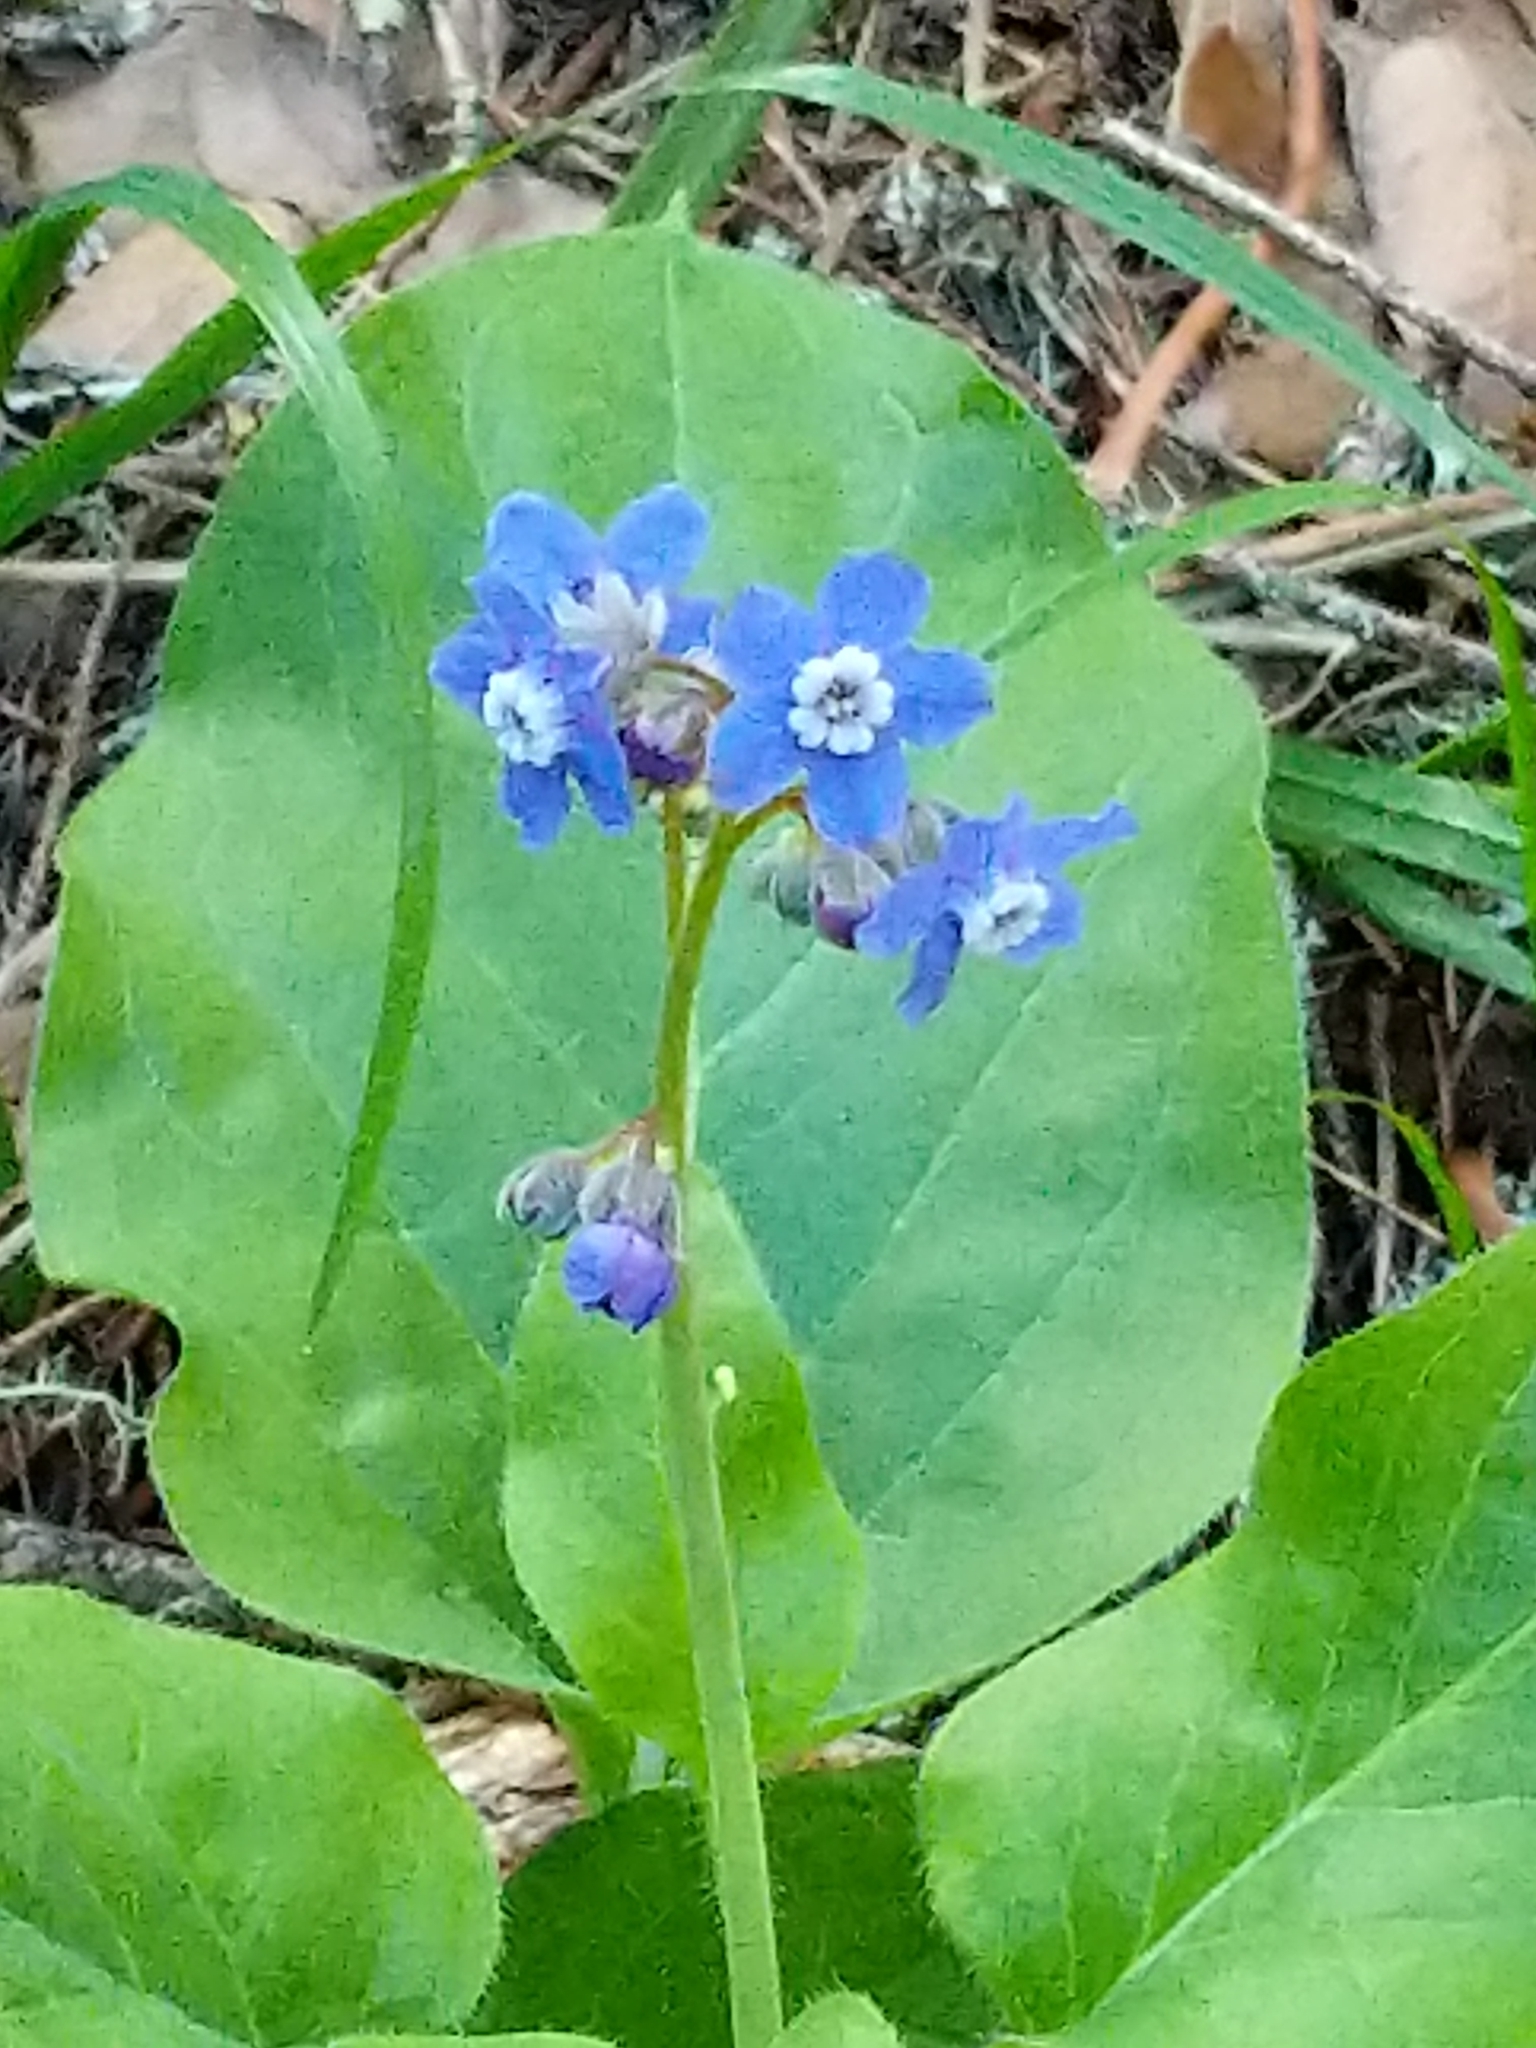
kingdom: Plantae
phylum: Tracheophyta
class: Magnoliopsida
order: Boraginales
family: Boraginaceae
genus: Adelinia
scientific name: Adelinia grande
